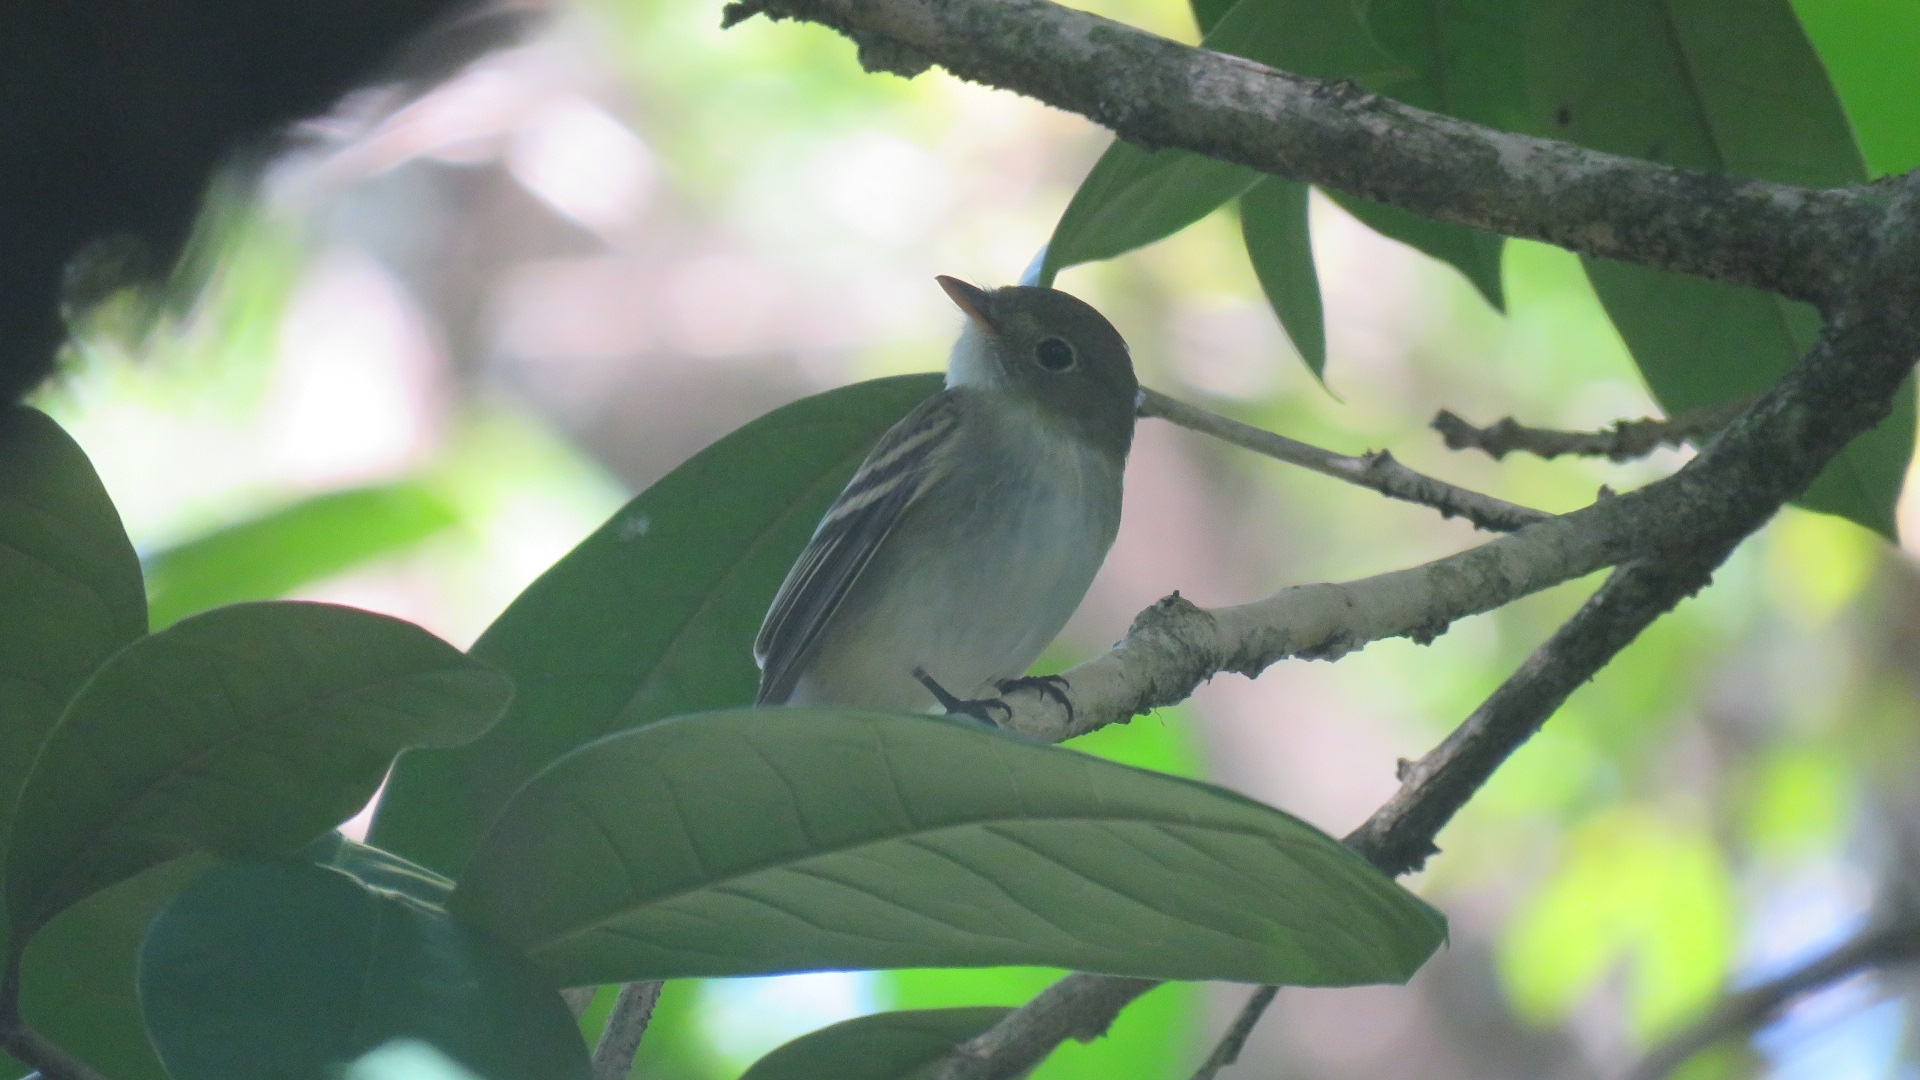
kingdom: Animalia
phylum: Chordata
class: Aves
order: Passeriformes
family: Tyrannidae
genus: Empidonax
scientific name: Empidonax virescens
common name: Acadian flycatcher
